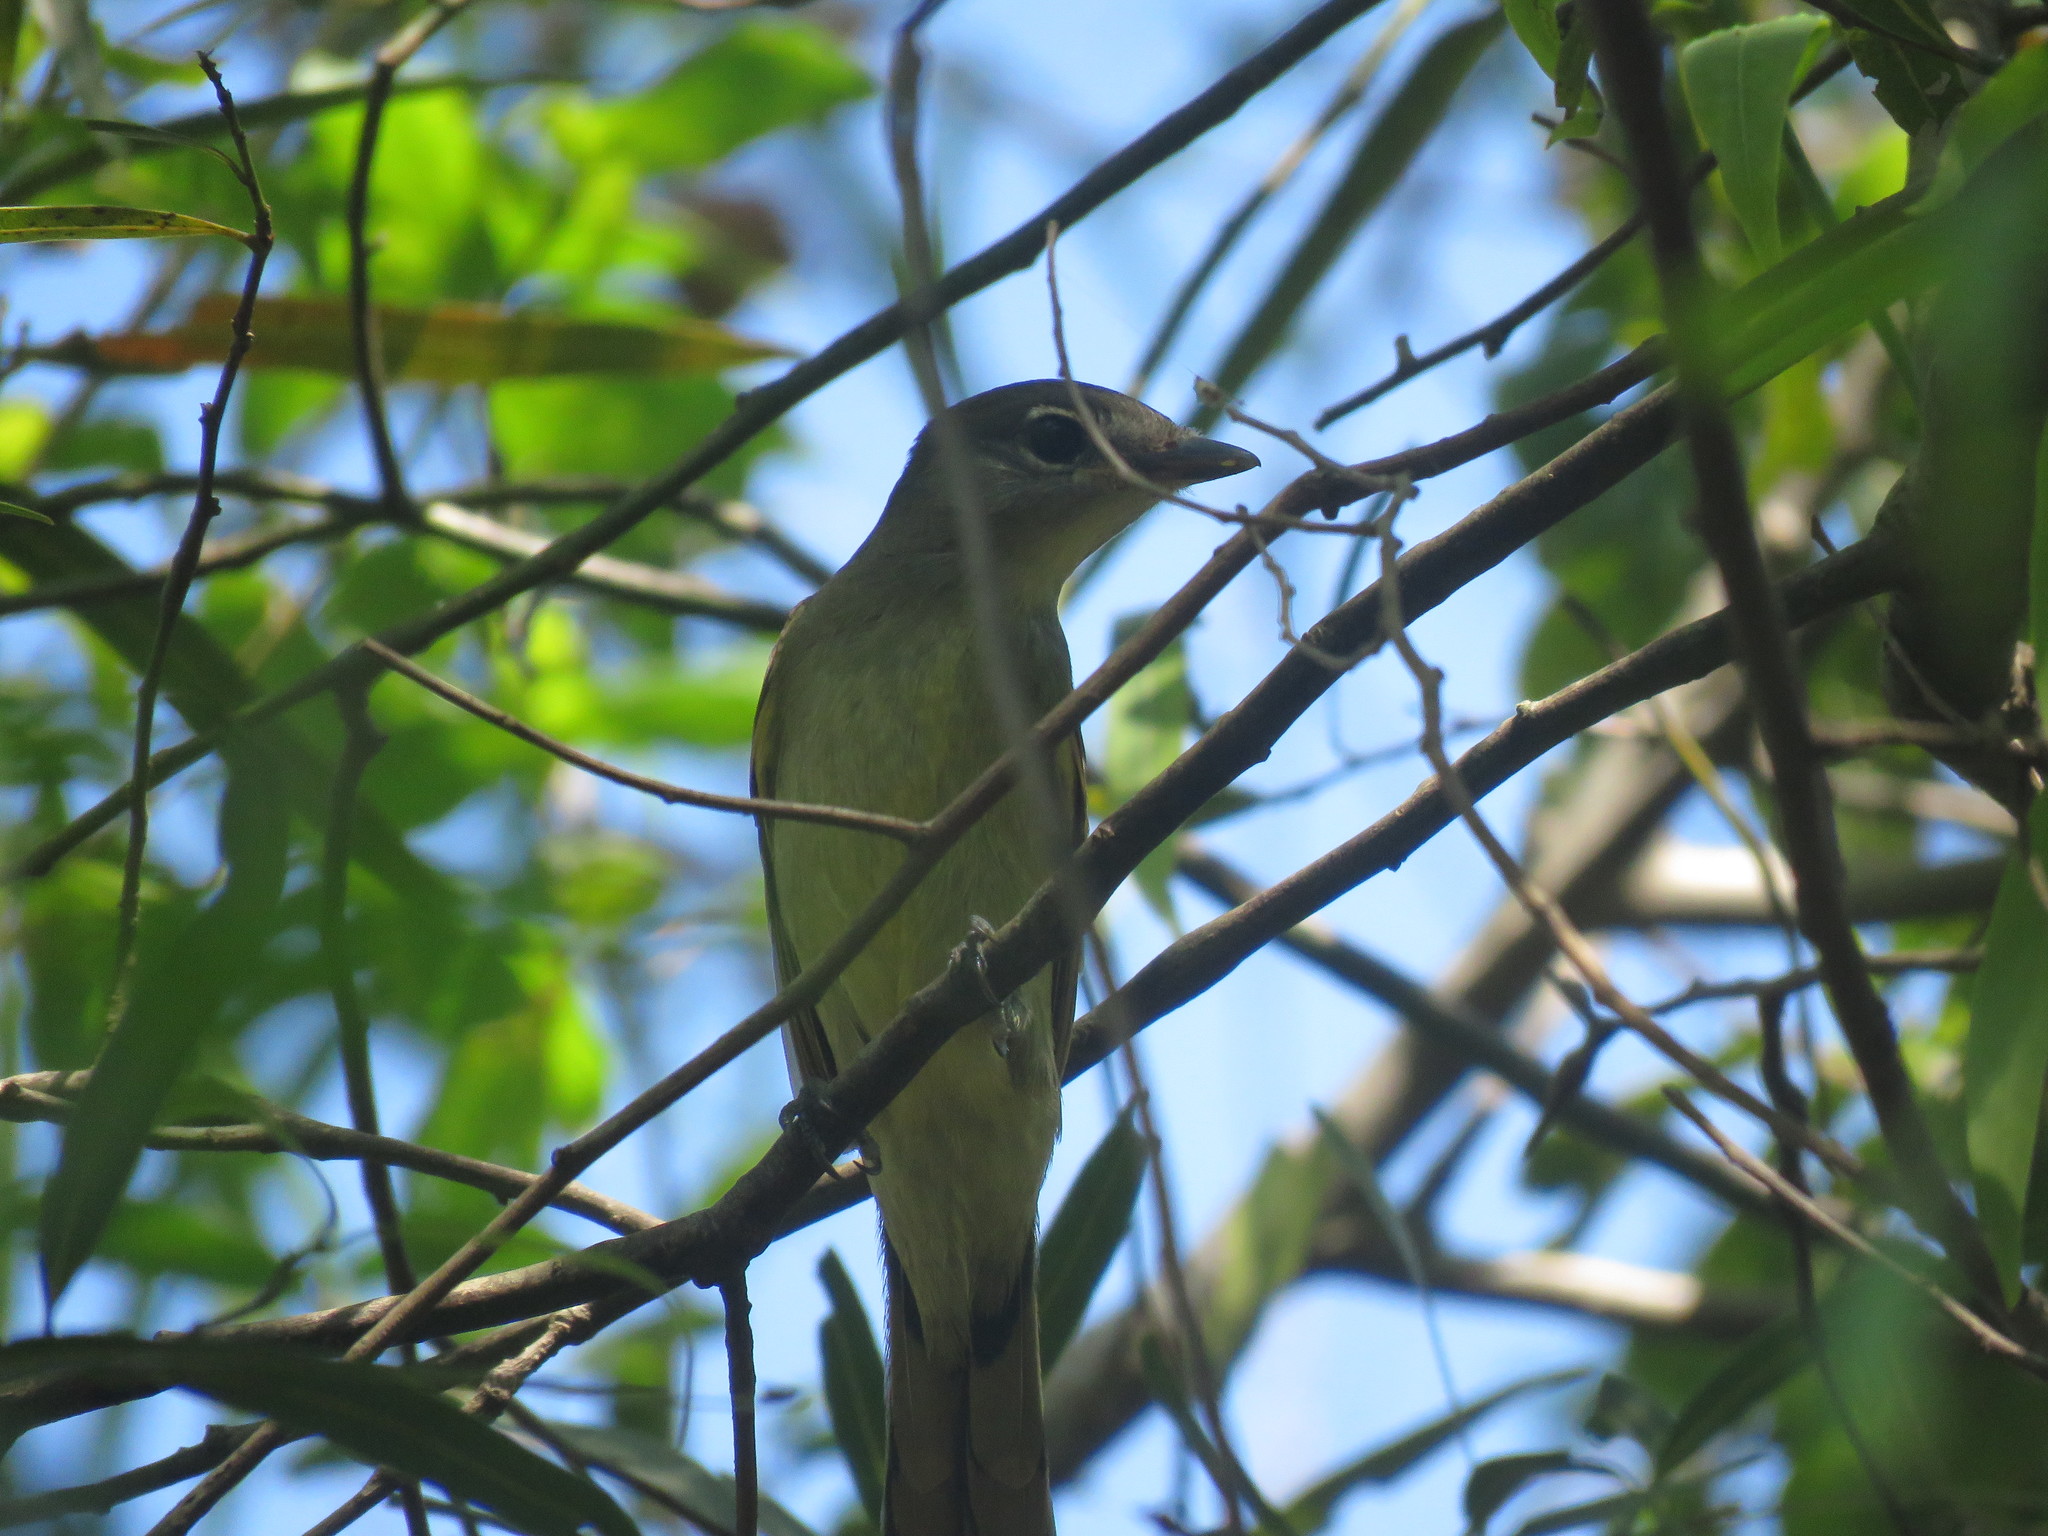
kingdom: Animalia
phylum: Chordata
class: Aves
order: Passeriformes
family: Cotingidae
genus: Pachyramphus
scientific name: Pachyramphus polychopterus
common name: White-winged becard
